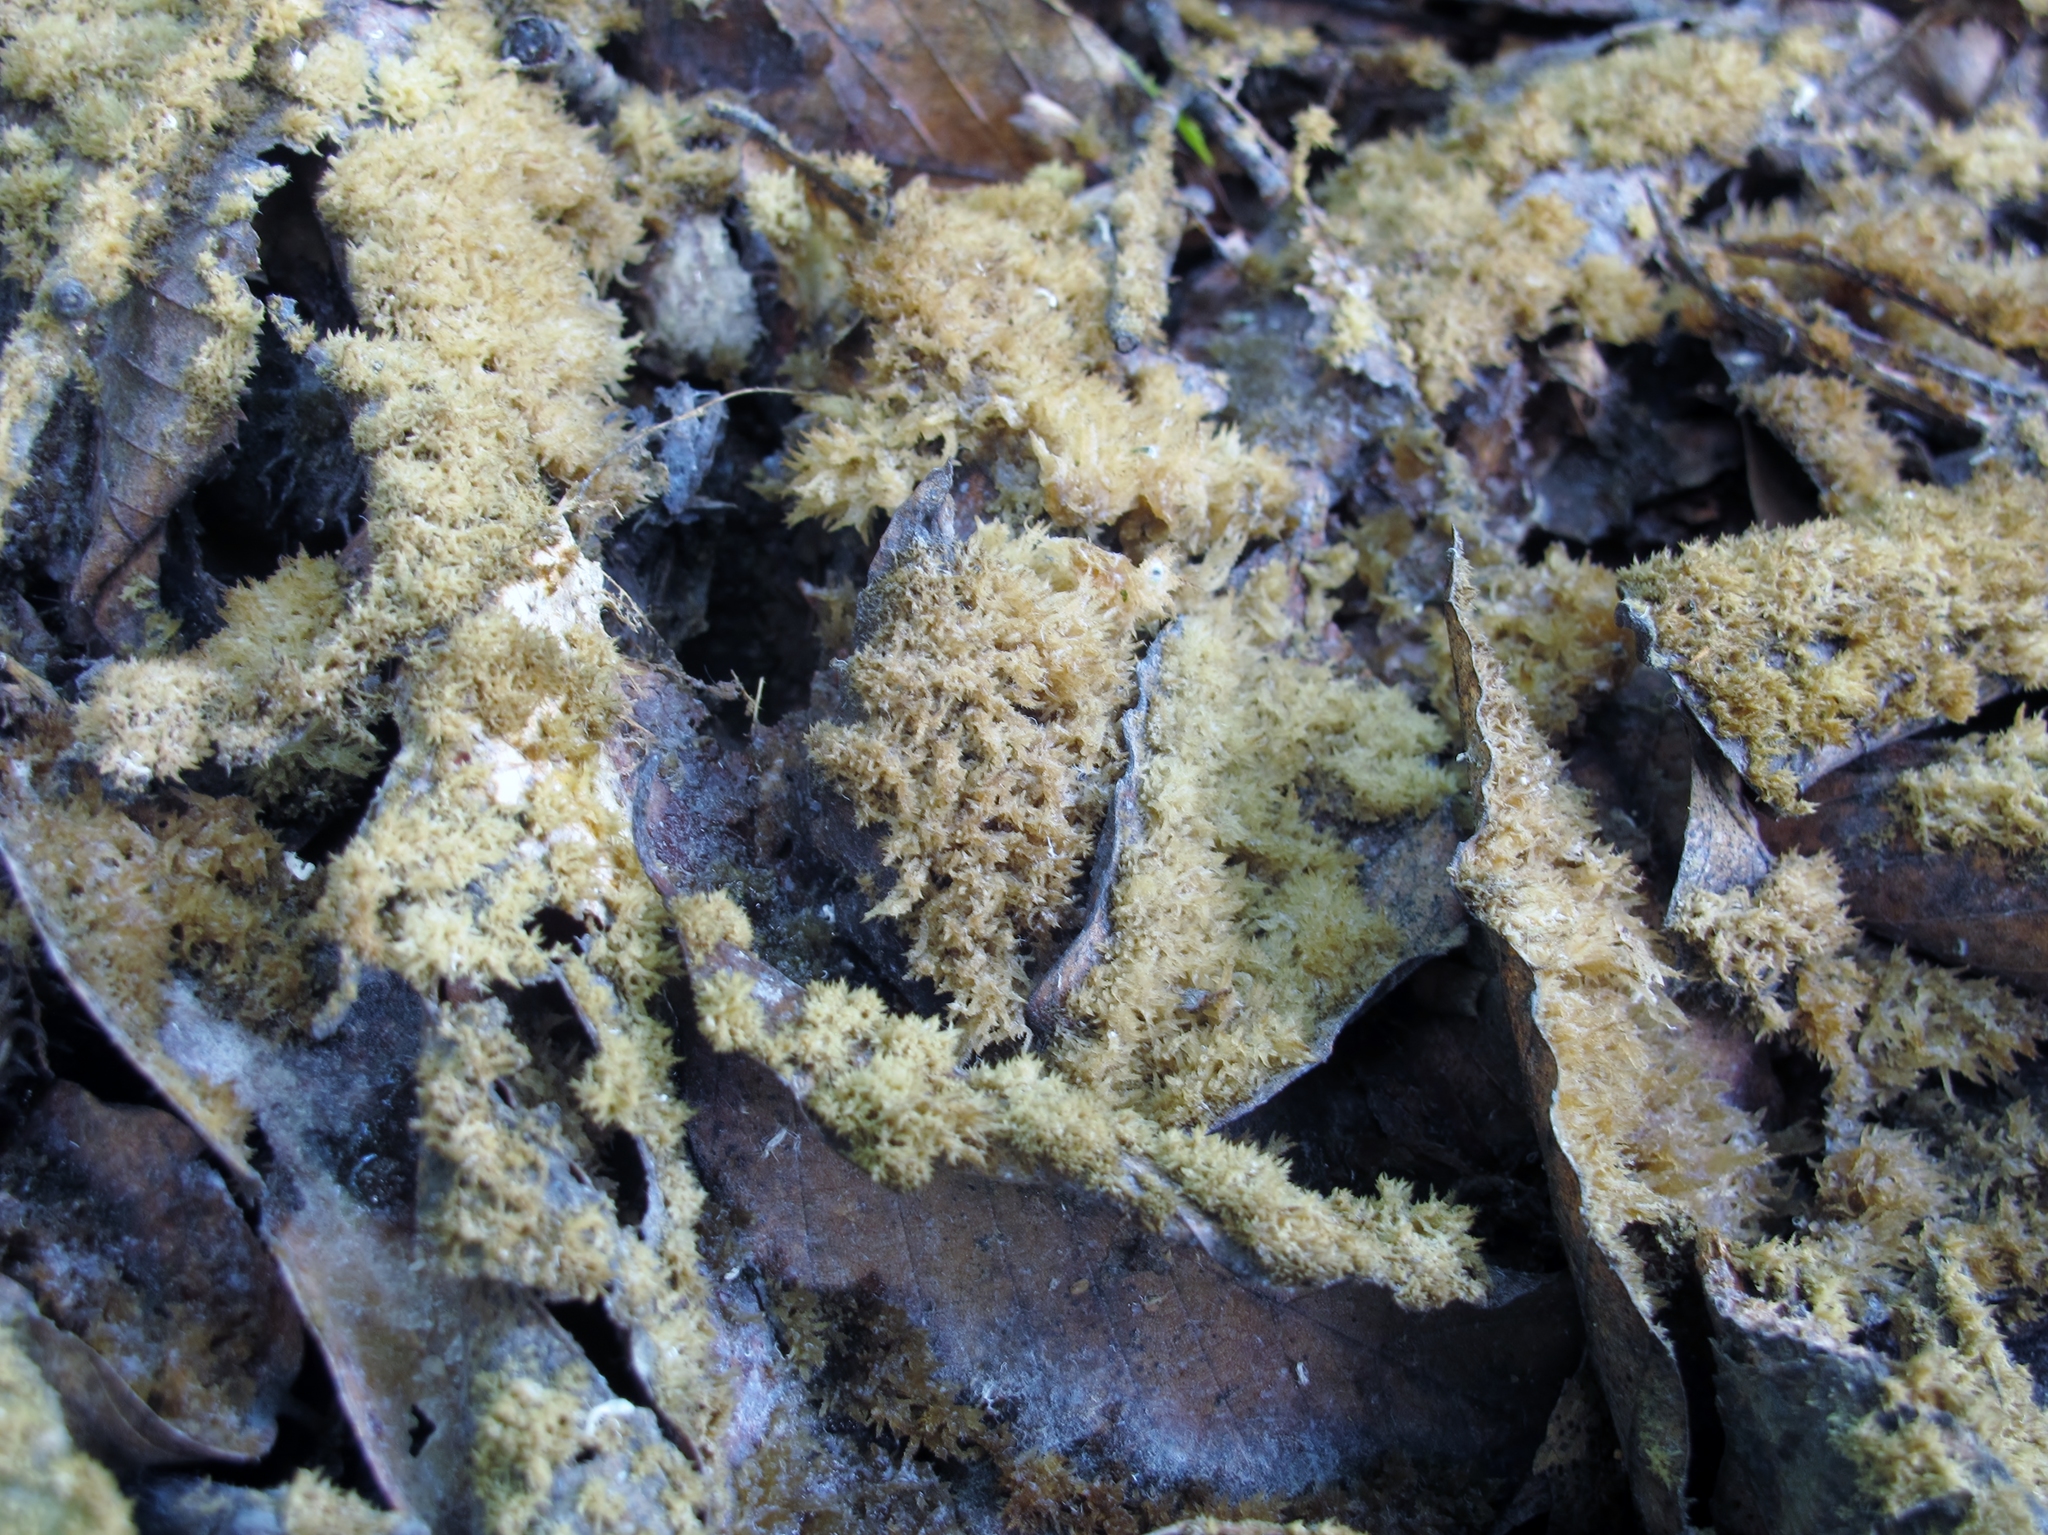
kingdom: Fungi
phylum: Ascomycota
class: Dothideomycetes
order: Capnodiales
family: Capnodiaceae
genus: Scorias
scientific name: Scorias spongiosa
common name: Black sooty mold
